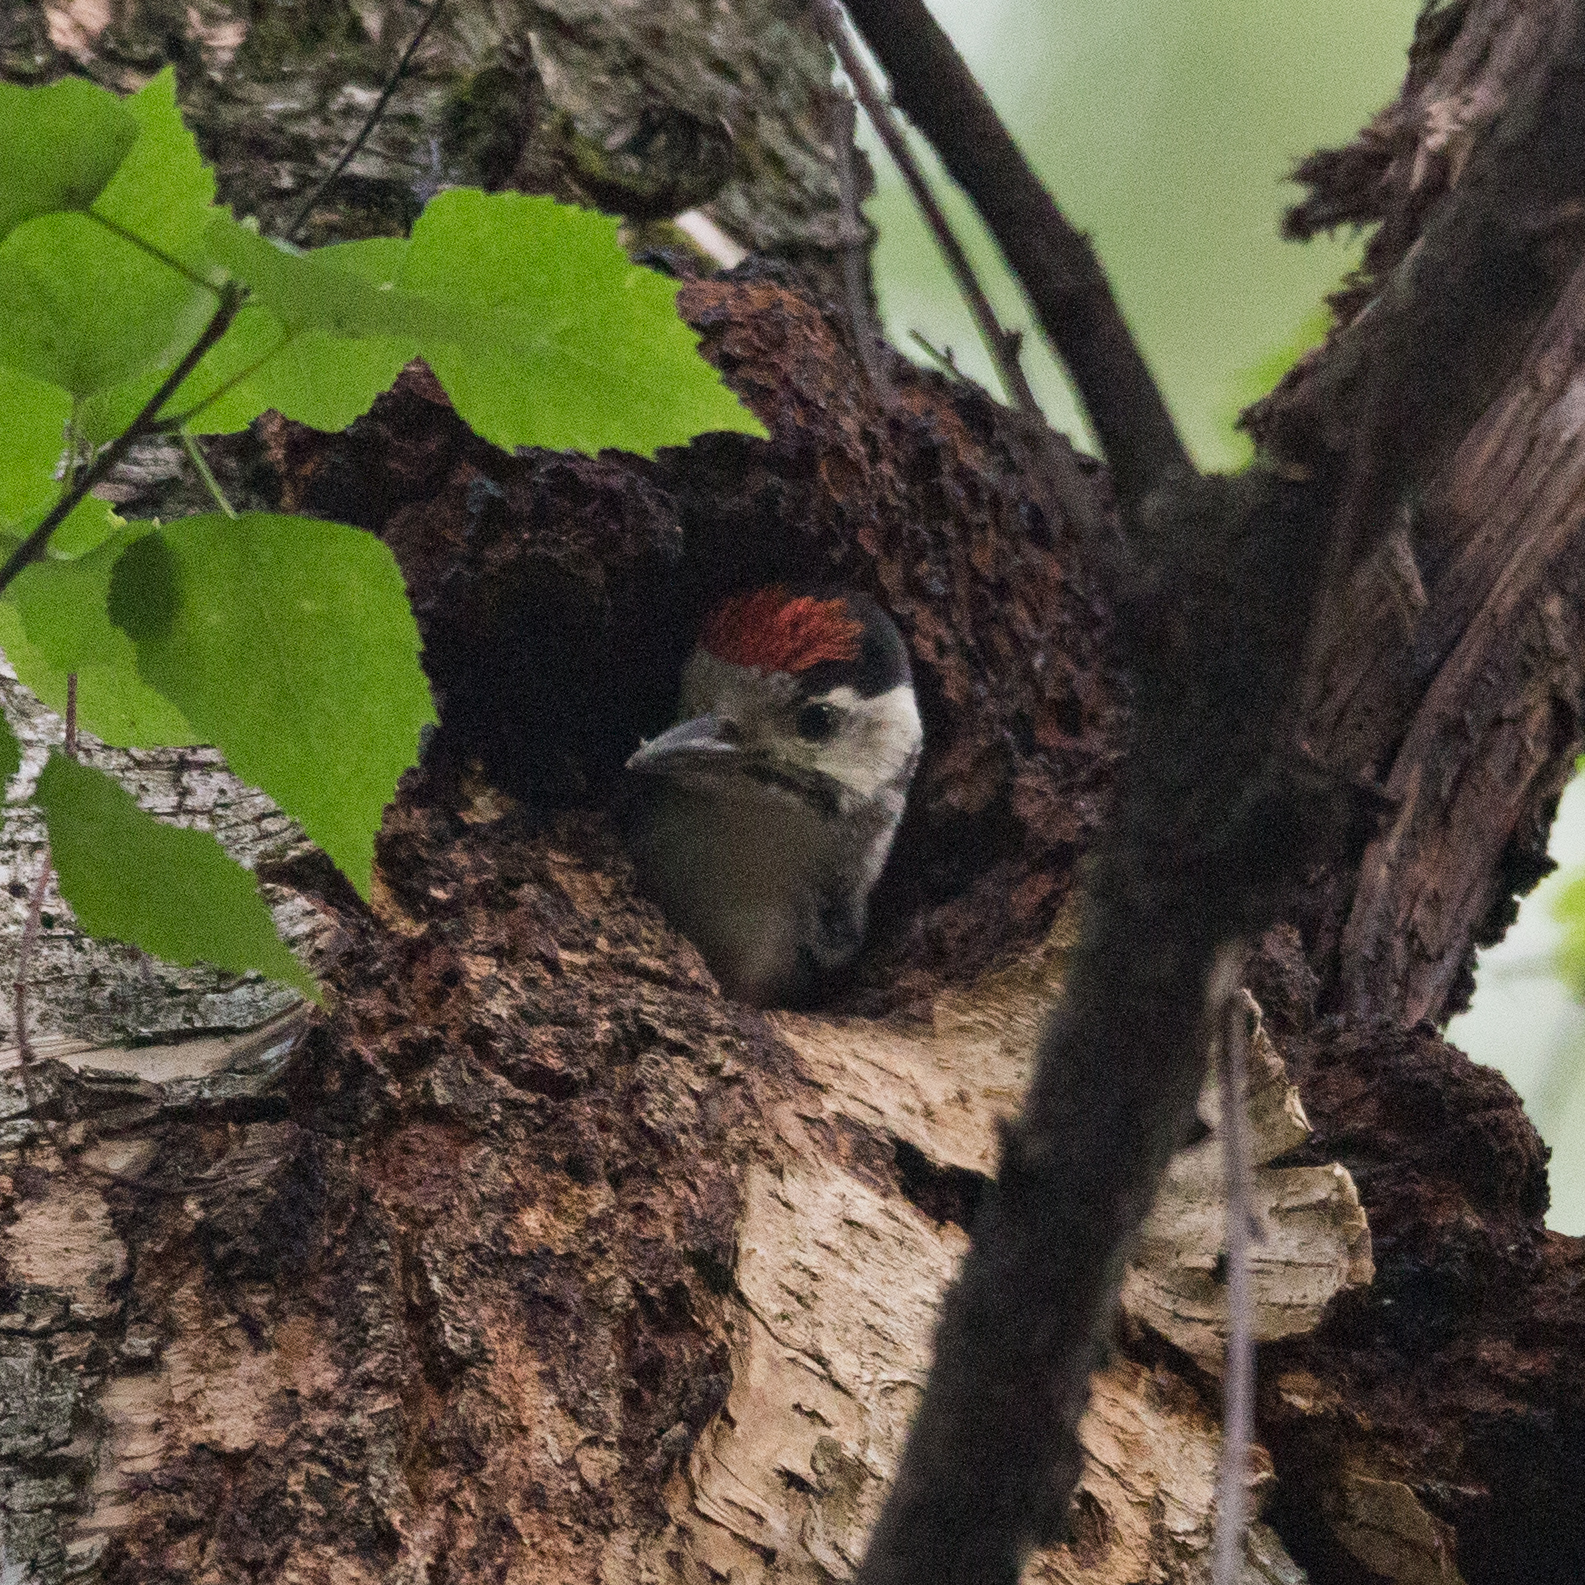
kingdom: Animalia
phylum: Chordata
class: Aves
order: Piciformes
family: Picidae
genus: Dendrocopos
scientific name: Dendrocopos major
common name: Great spotted woodpecker
